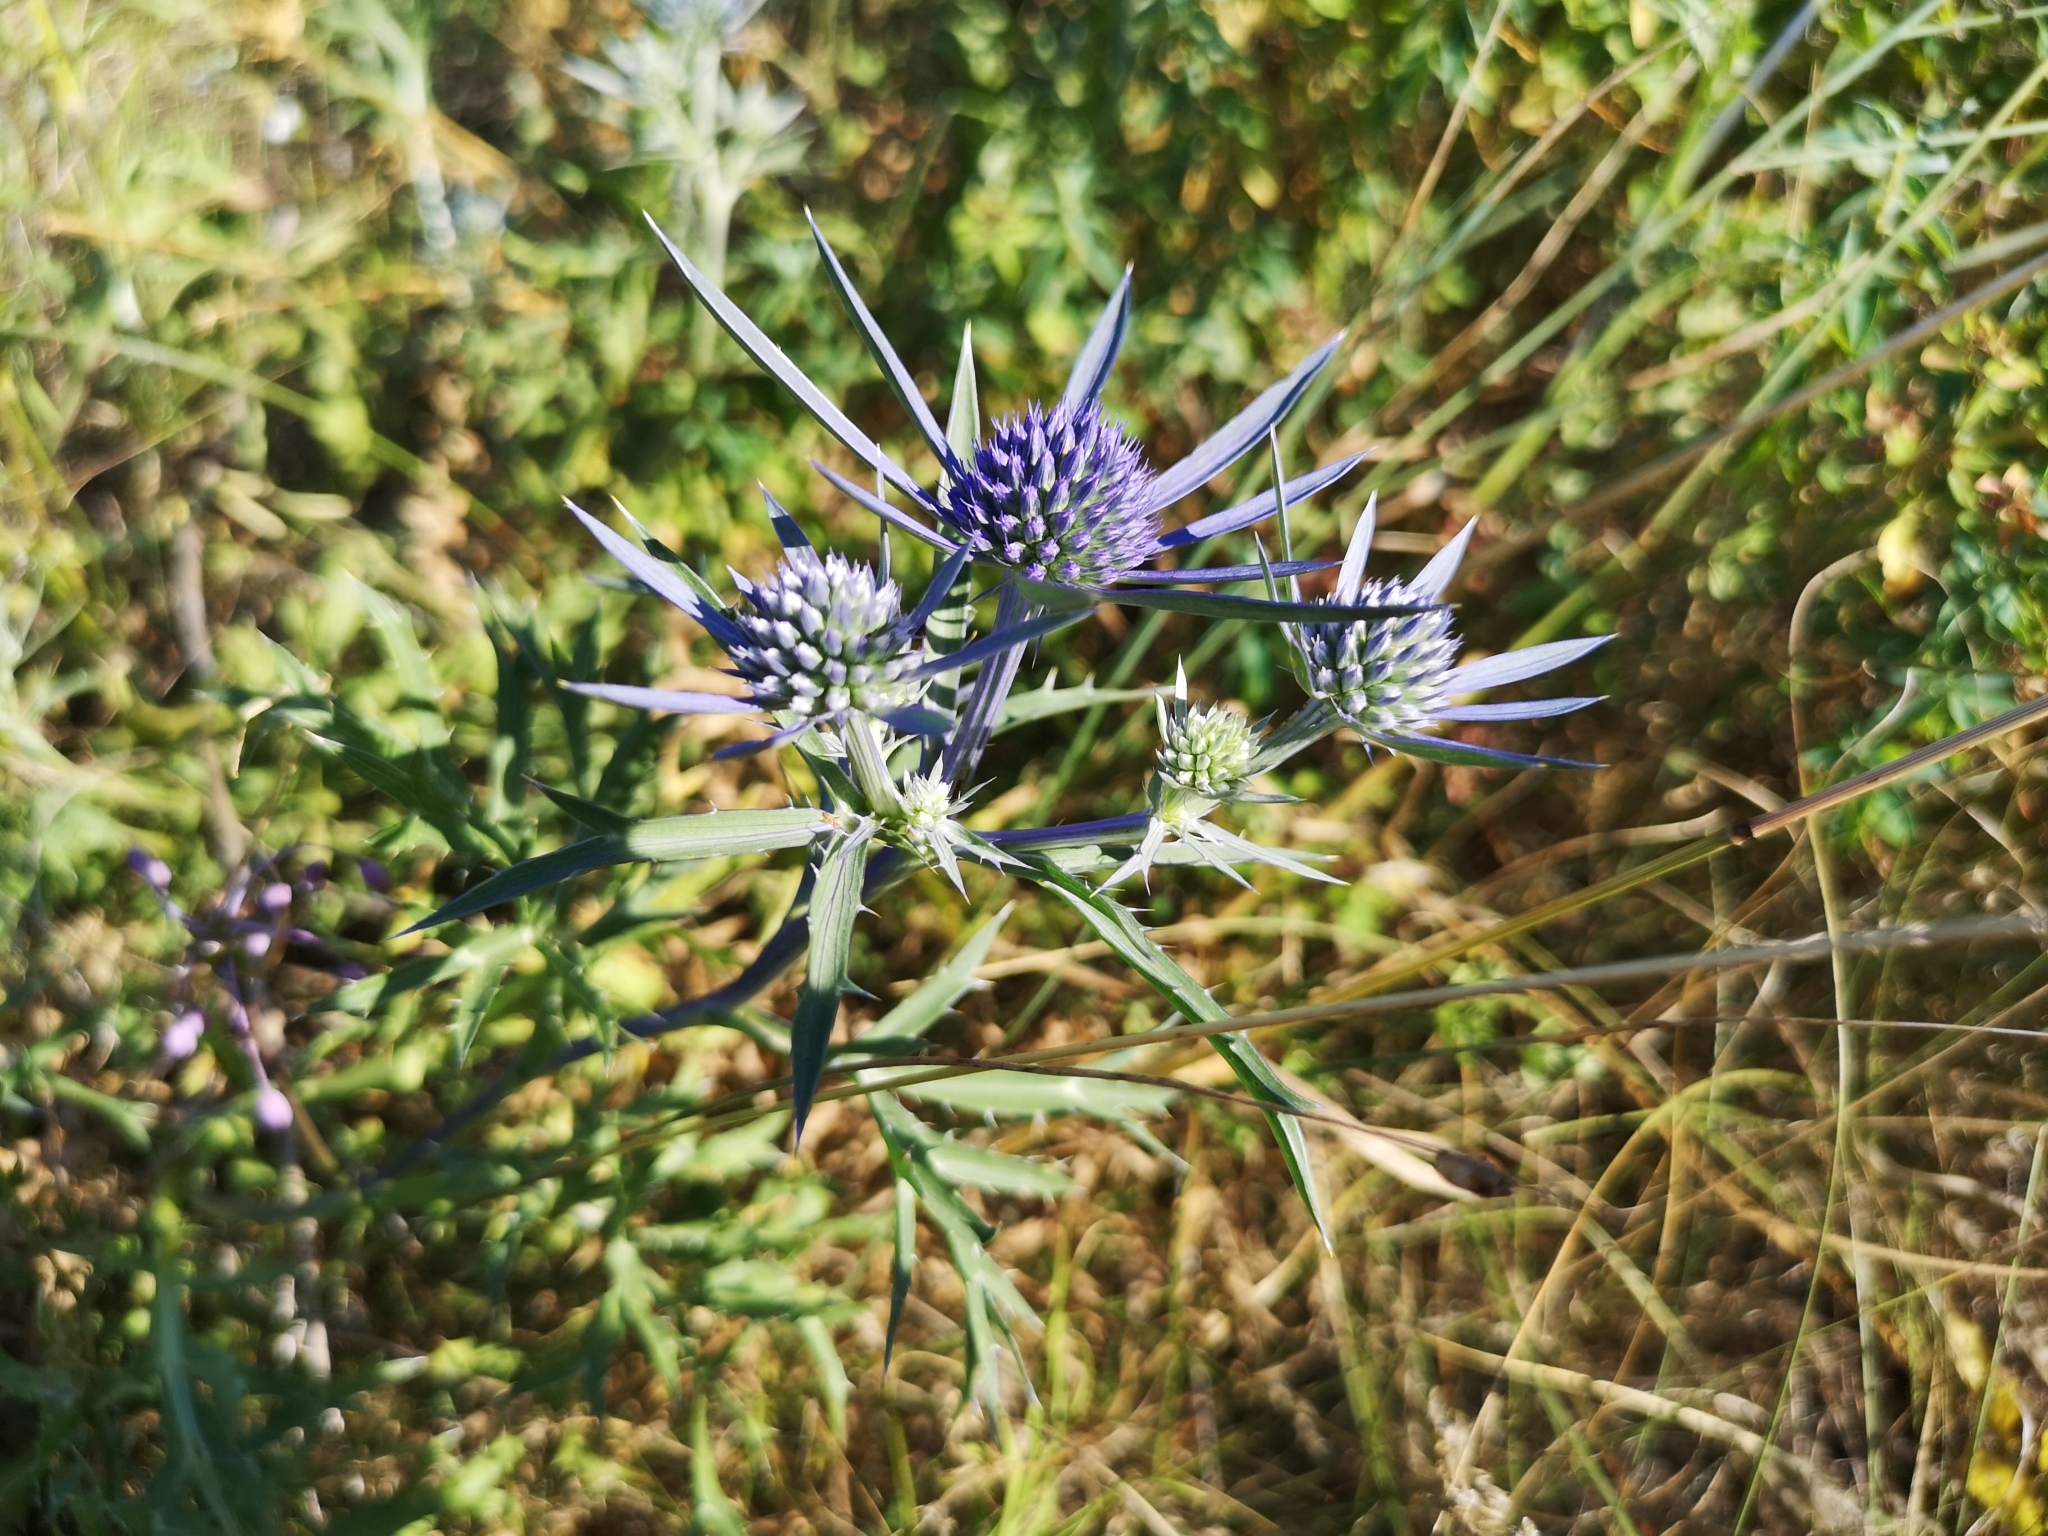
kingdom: Plantae
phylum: Tracheophyta
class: Magnoliopsida
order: Apiales
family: Apiaceae
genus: Eryngium
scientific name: Eryngium amethystinum
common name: Amethyst eryngo
